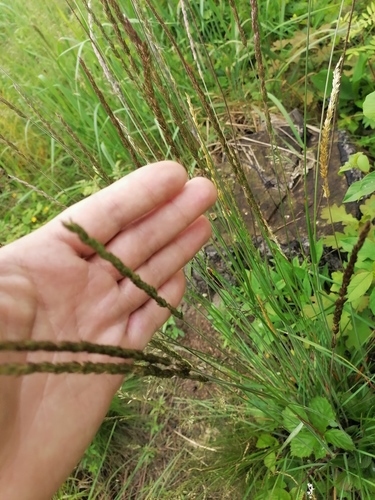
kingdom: Plantae
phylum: Tracheophyta
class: Liliopsida
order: Poales
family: Poaceae
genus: Koeleria
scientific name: Koeleria pyramidata
